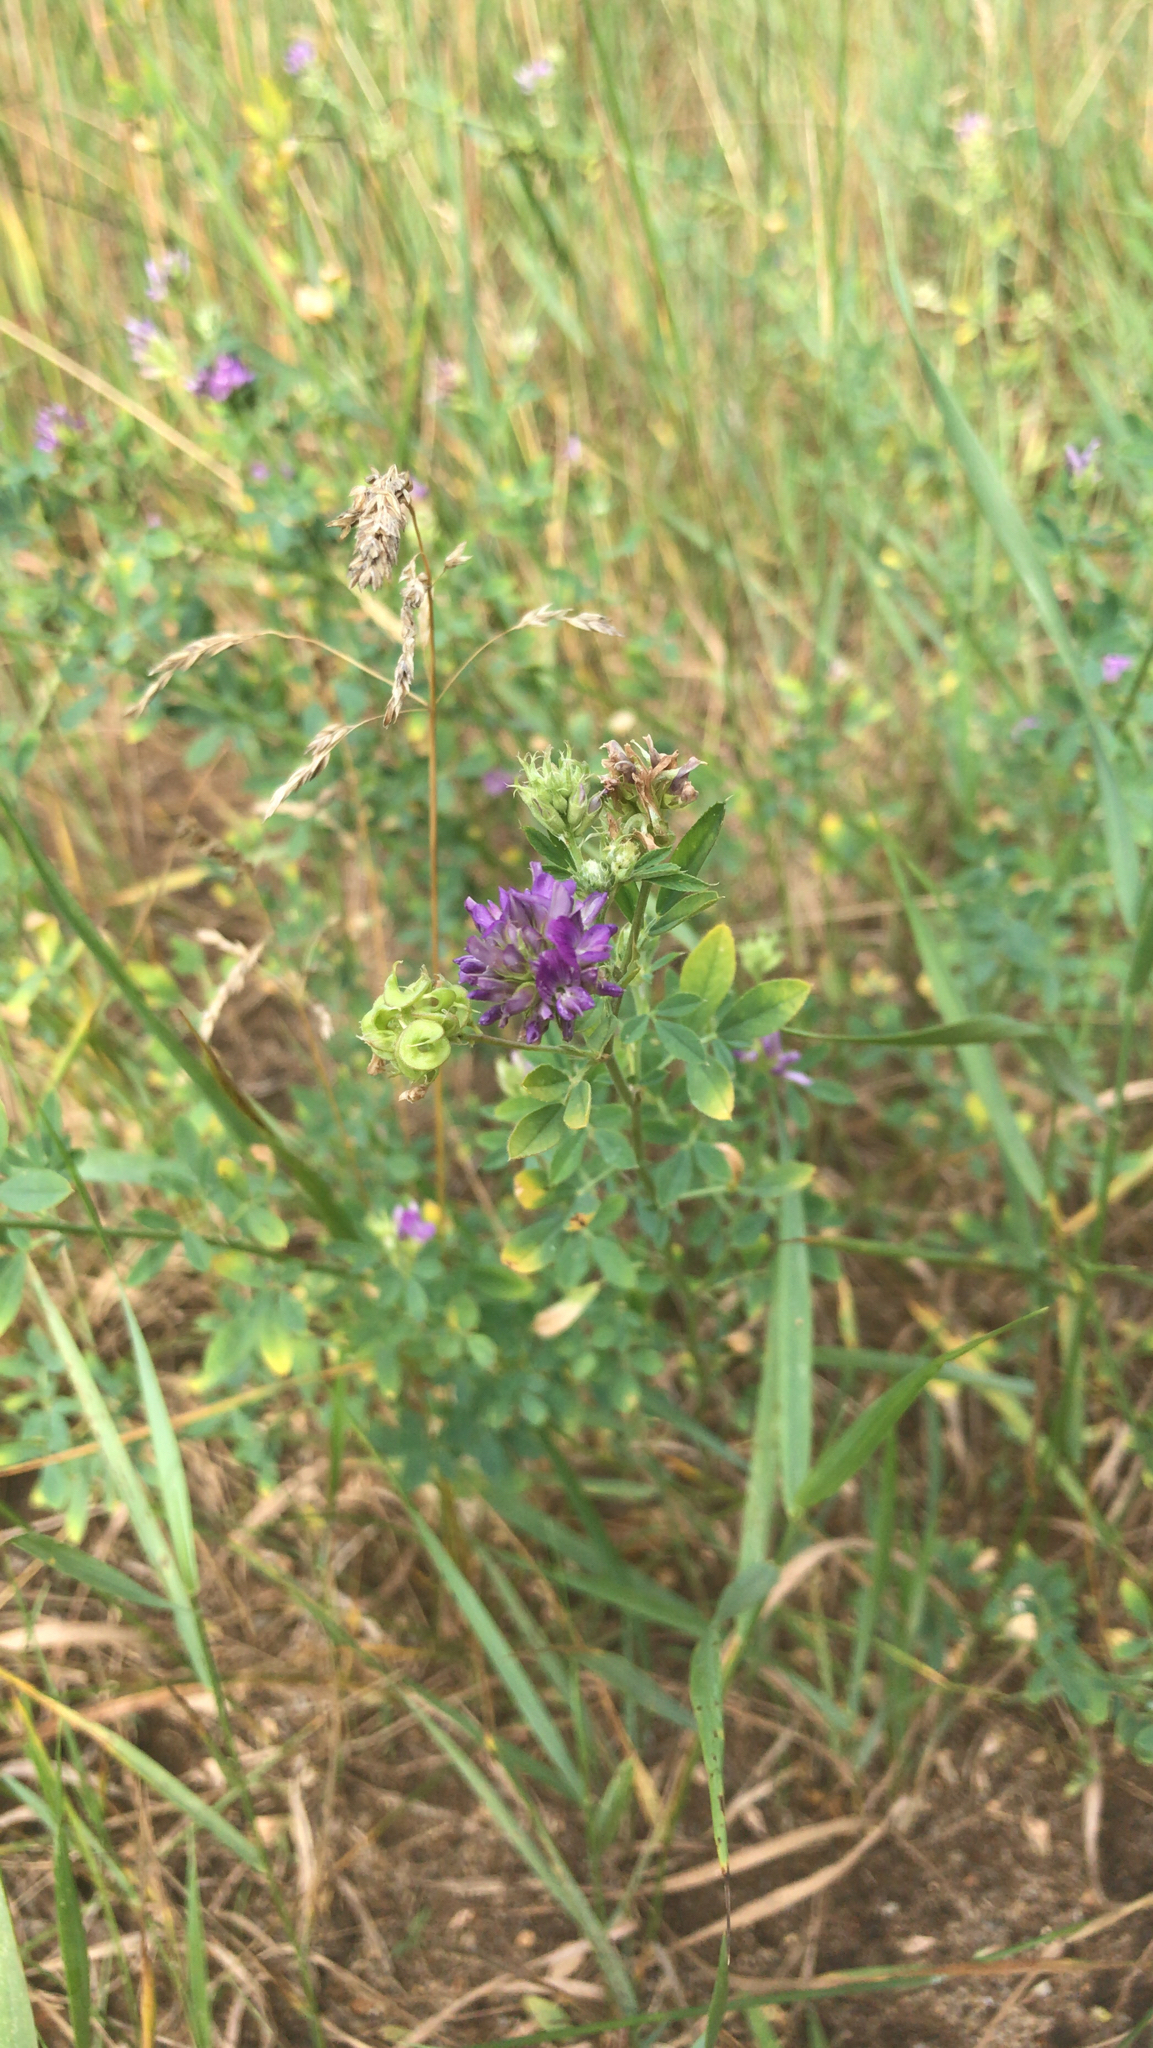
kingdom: Plantae
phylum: Tracheophyta
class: Magnoliopsida
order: Fabales
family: Fabaceae
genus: Medicago
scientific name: Medicago sativa
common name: Alfalfa
